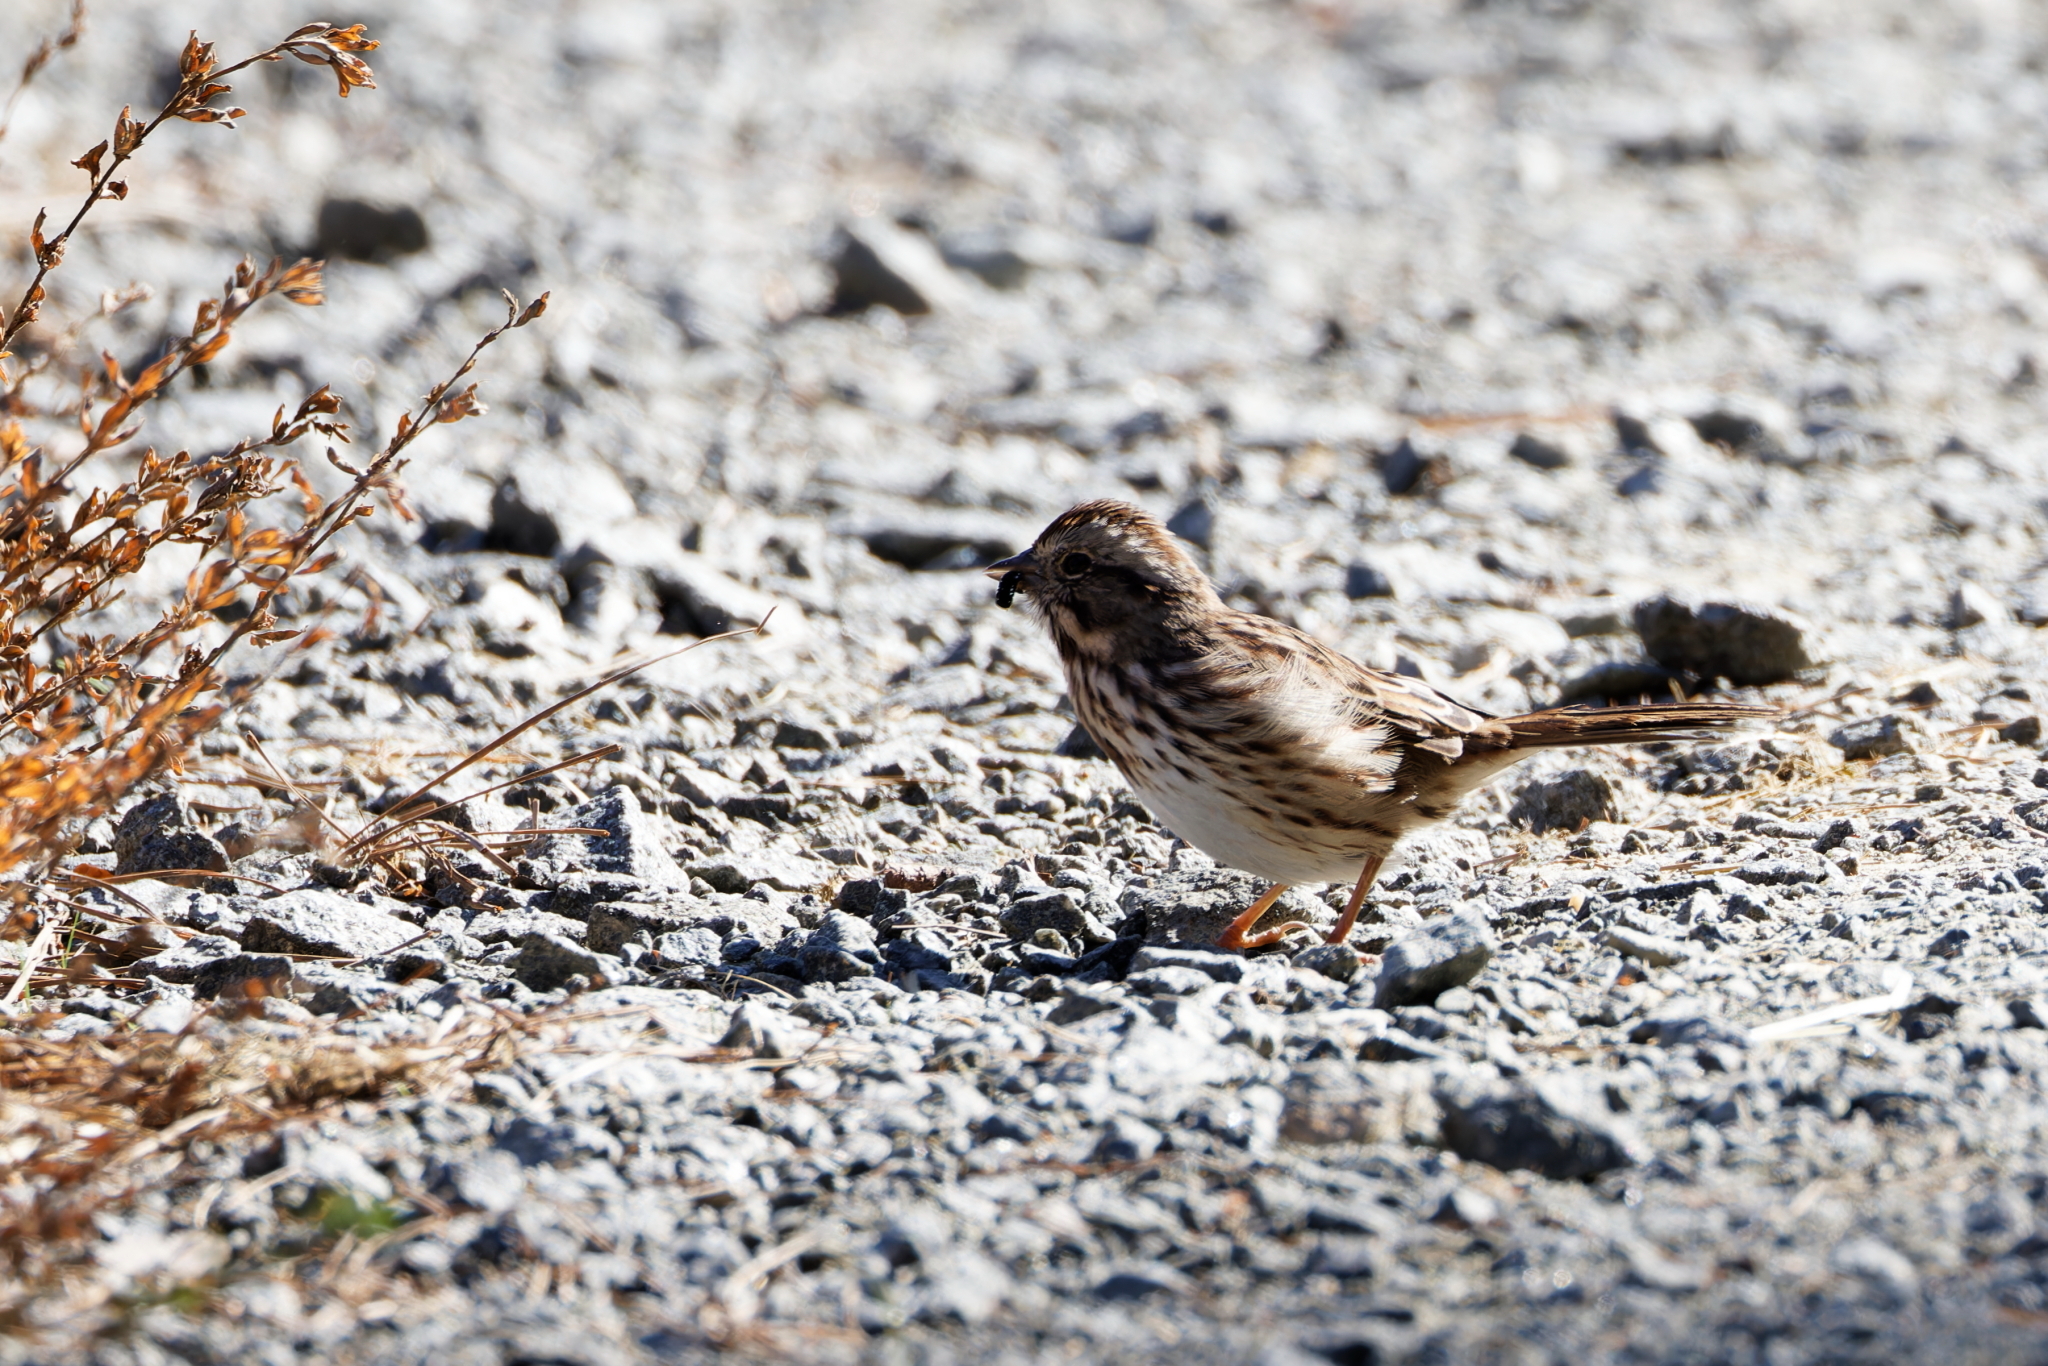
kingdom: Animalia
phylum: Chordata
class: Aves
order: Passeriformes
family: Passerellidae
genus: Melospiza
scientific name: Melospiza melodia
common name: Song sparrow
